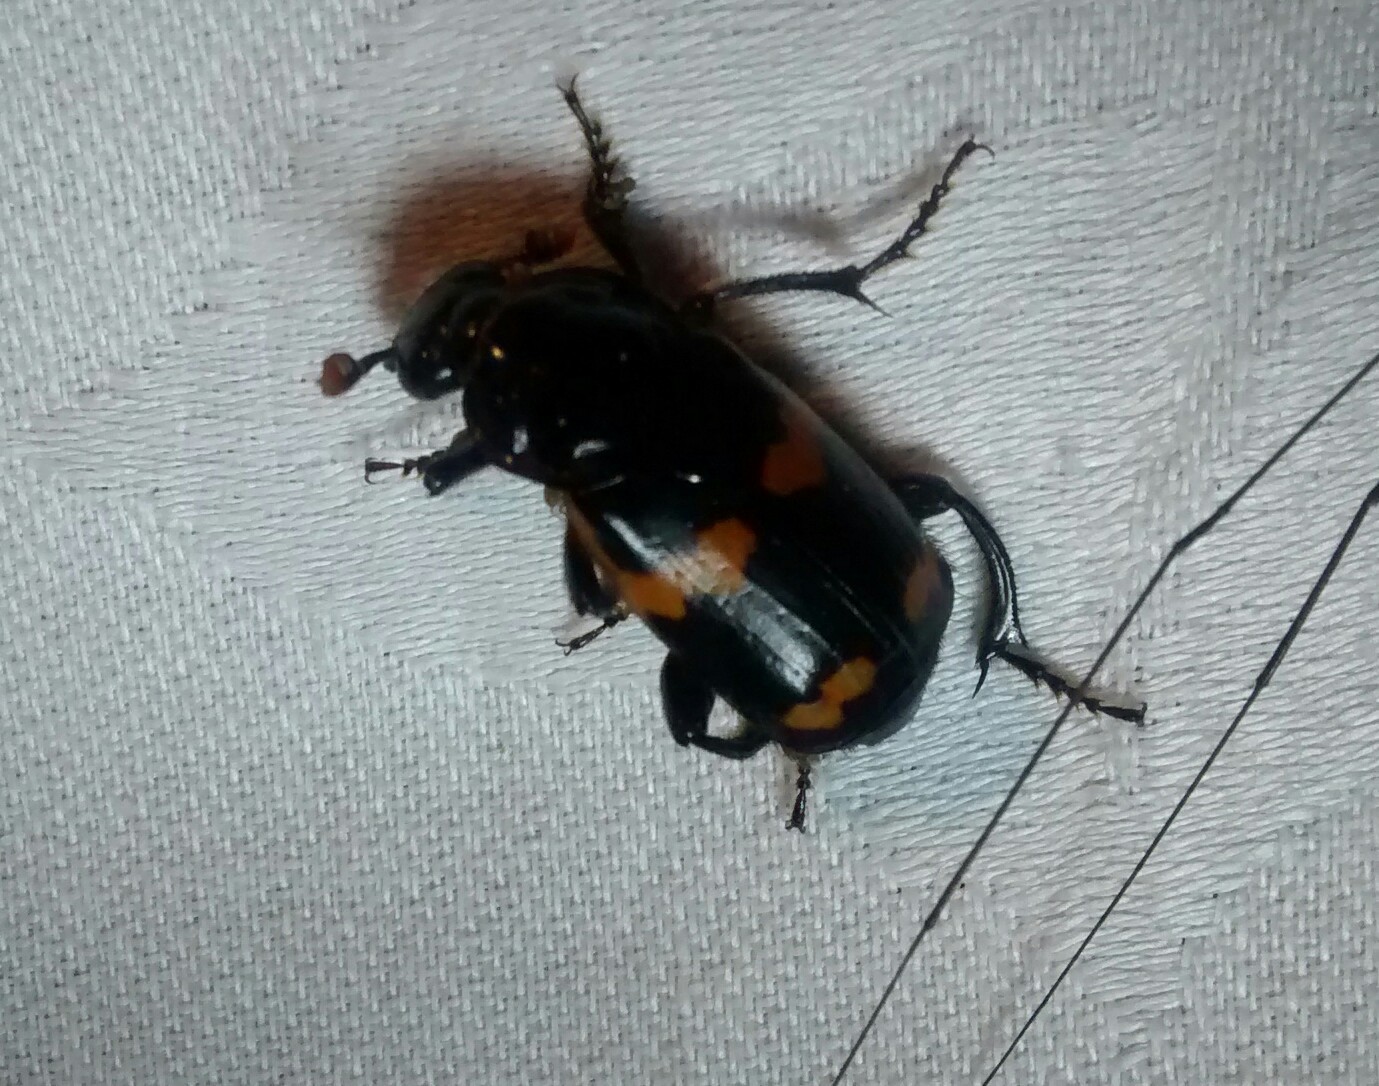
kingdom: Animalia
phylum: Arthropoda
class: Insecta
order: Coleoptera
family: Staphylinidae
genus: Nicrophorus
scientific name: Nicrophorus sayi
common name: Say's burying beetle
